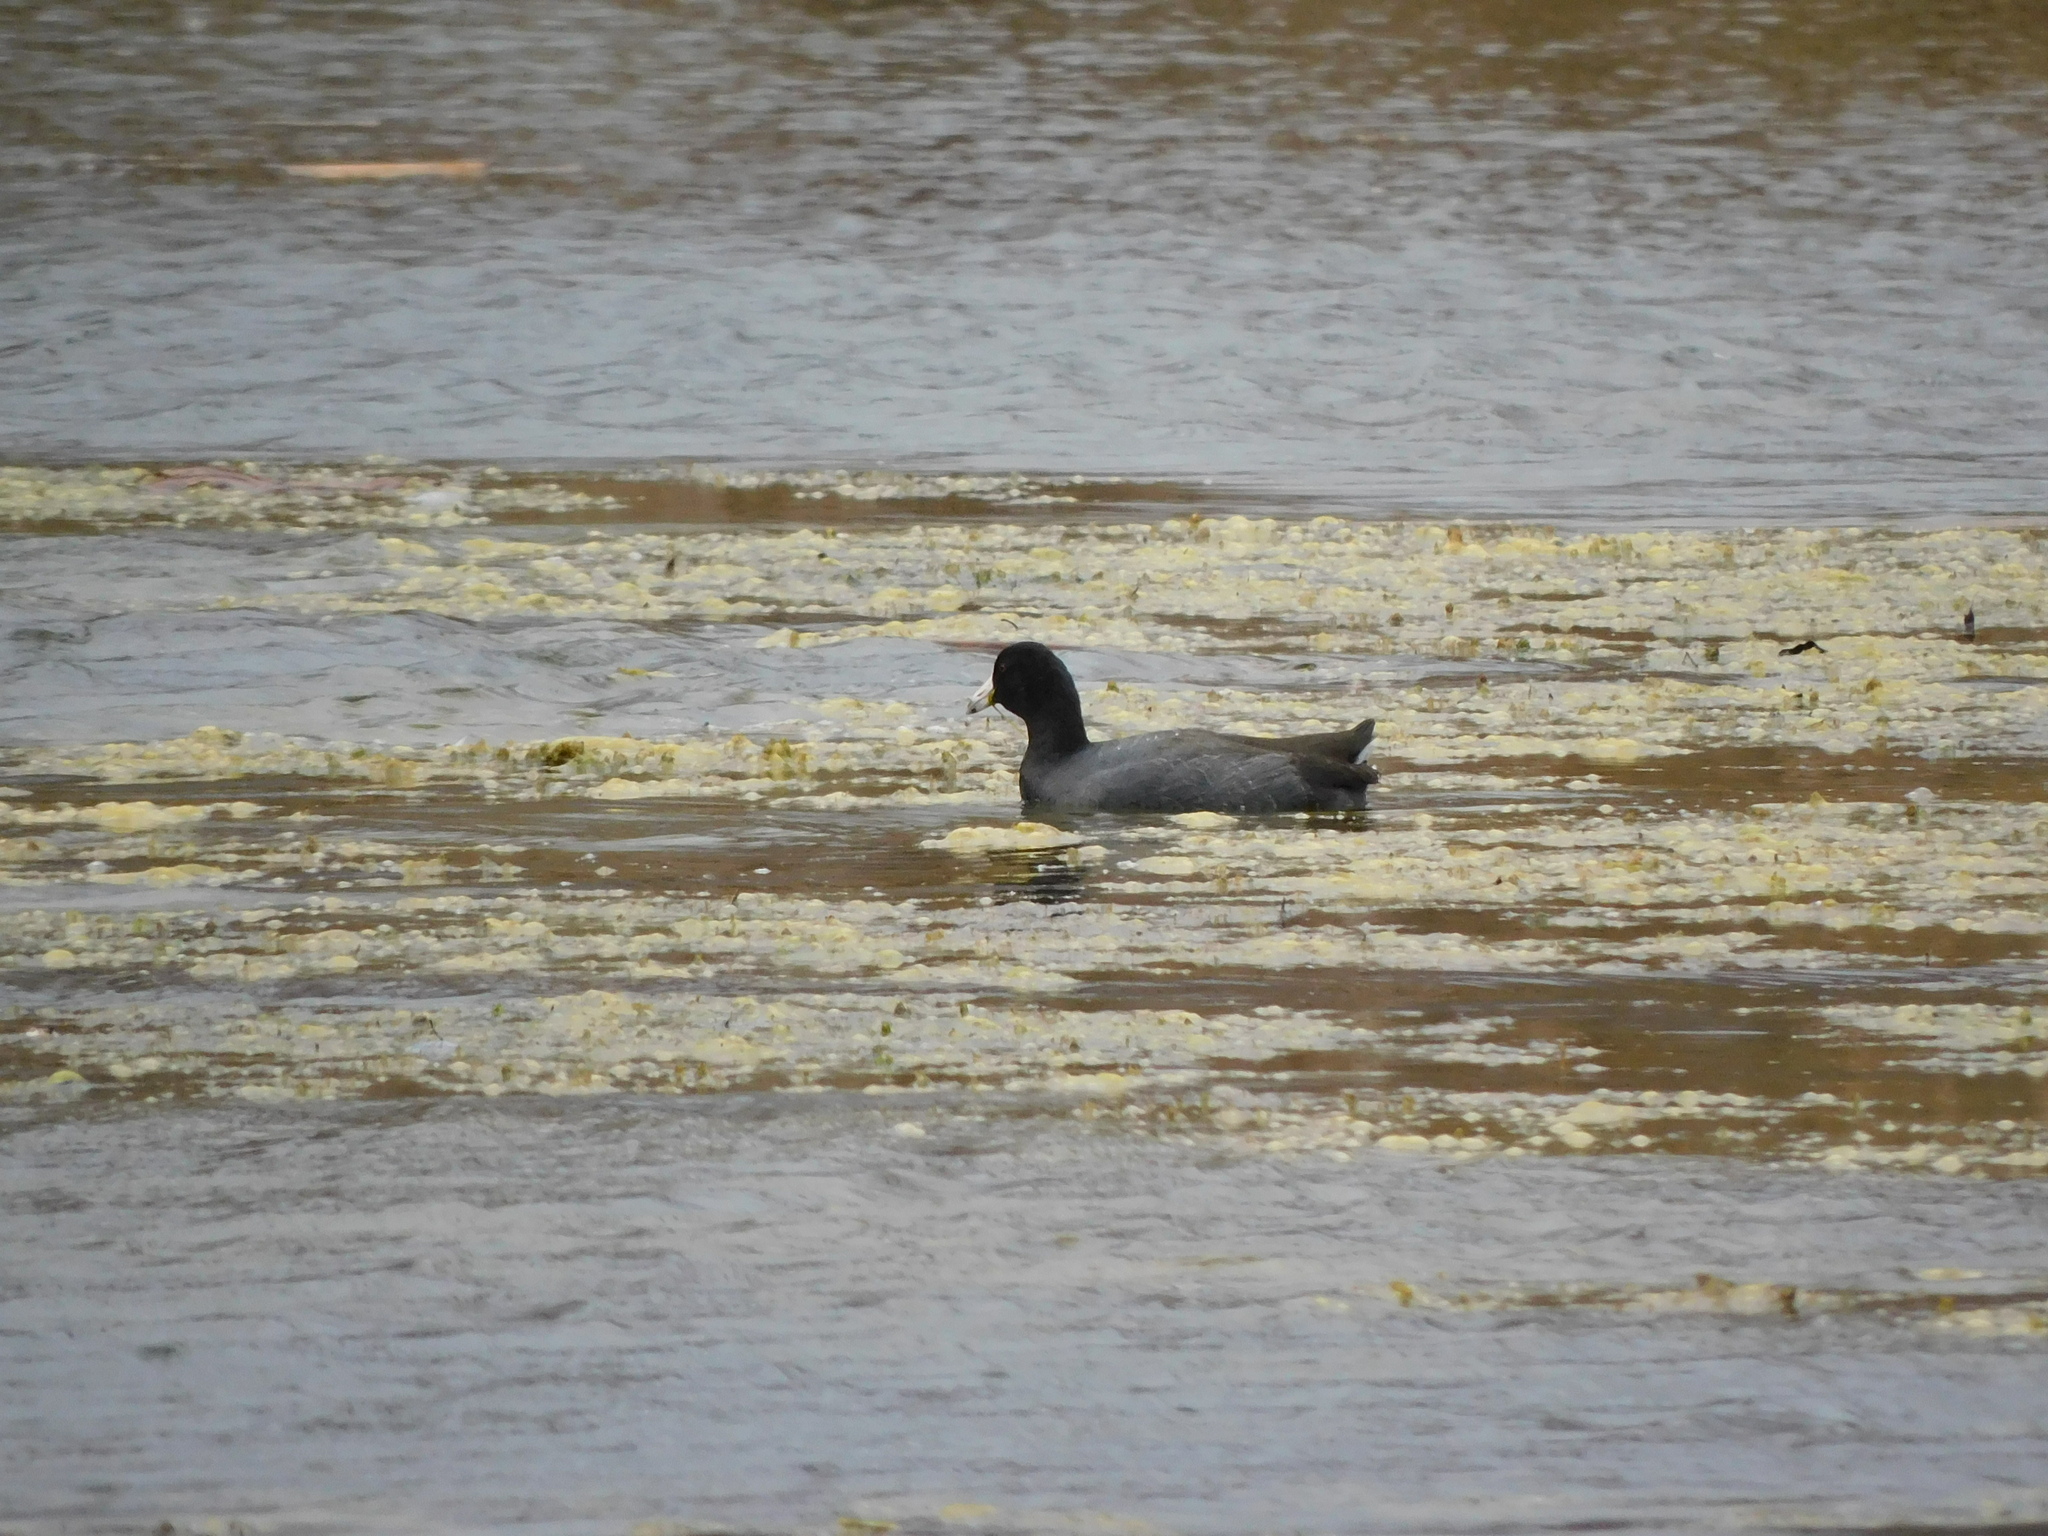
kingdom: Animalia
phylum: Chordata
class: Aves
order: Gruiformes
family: Rallidae
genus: Fulica
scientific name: Fulica americana
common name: American coot
